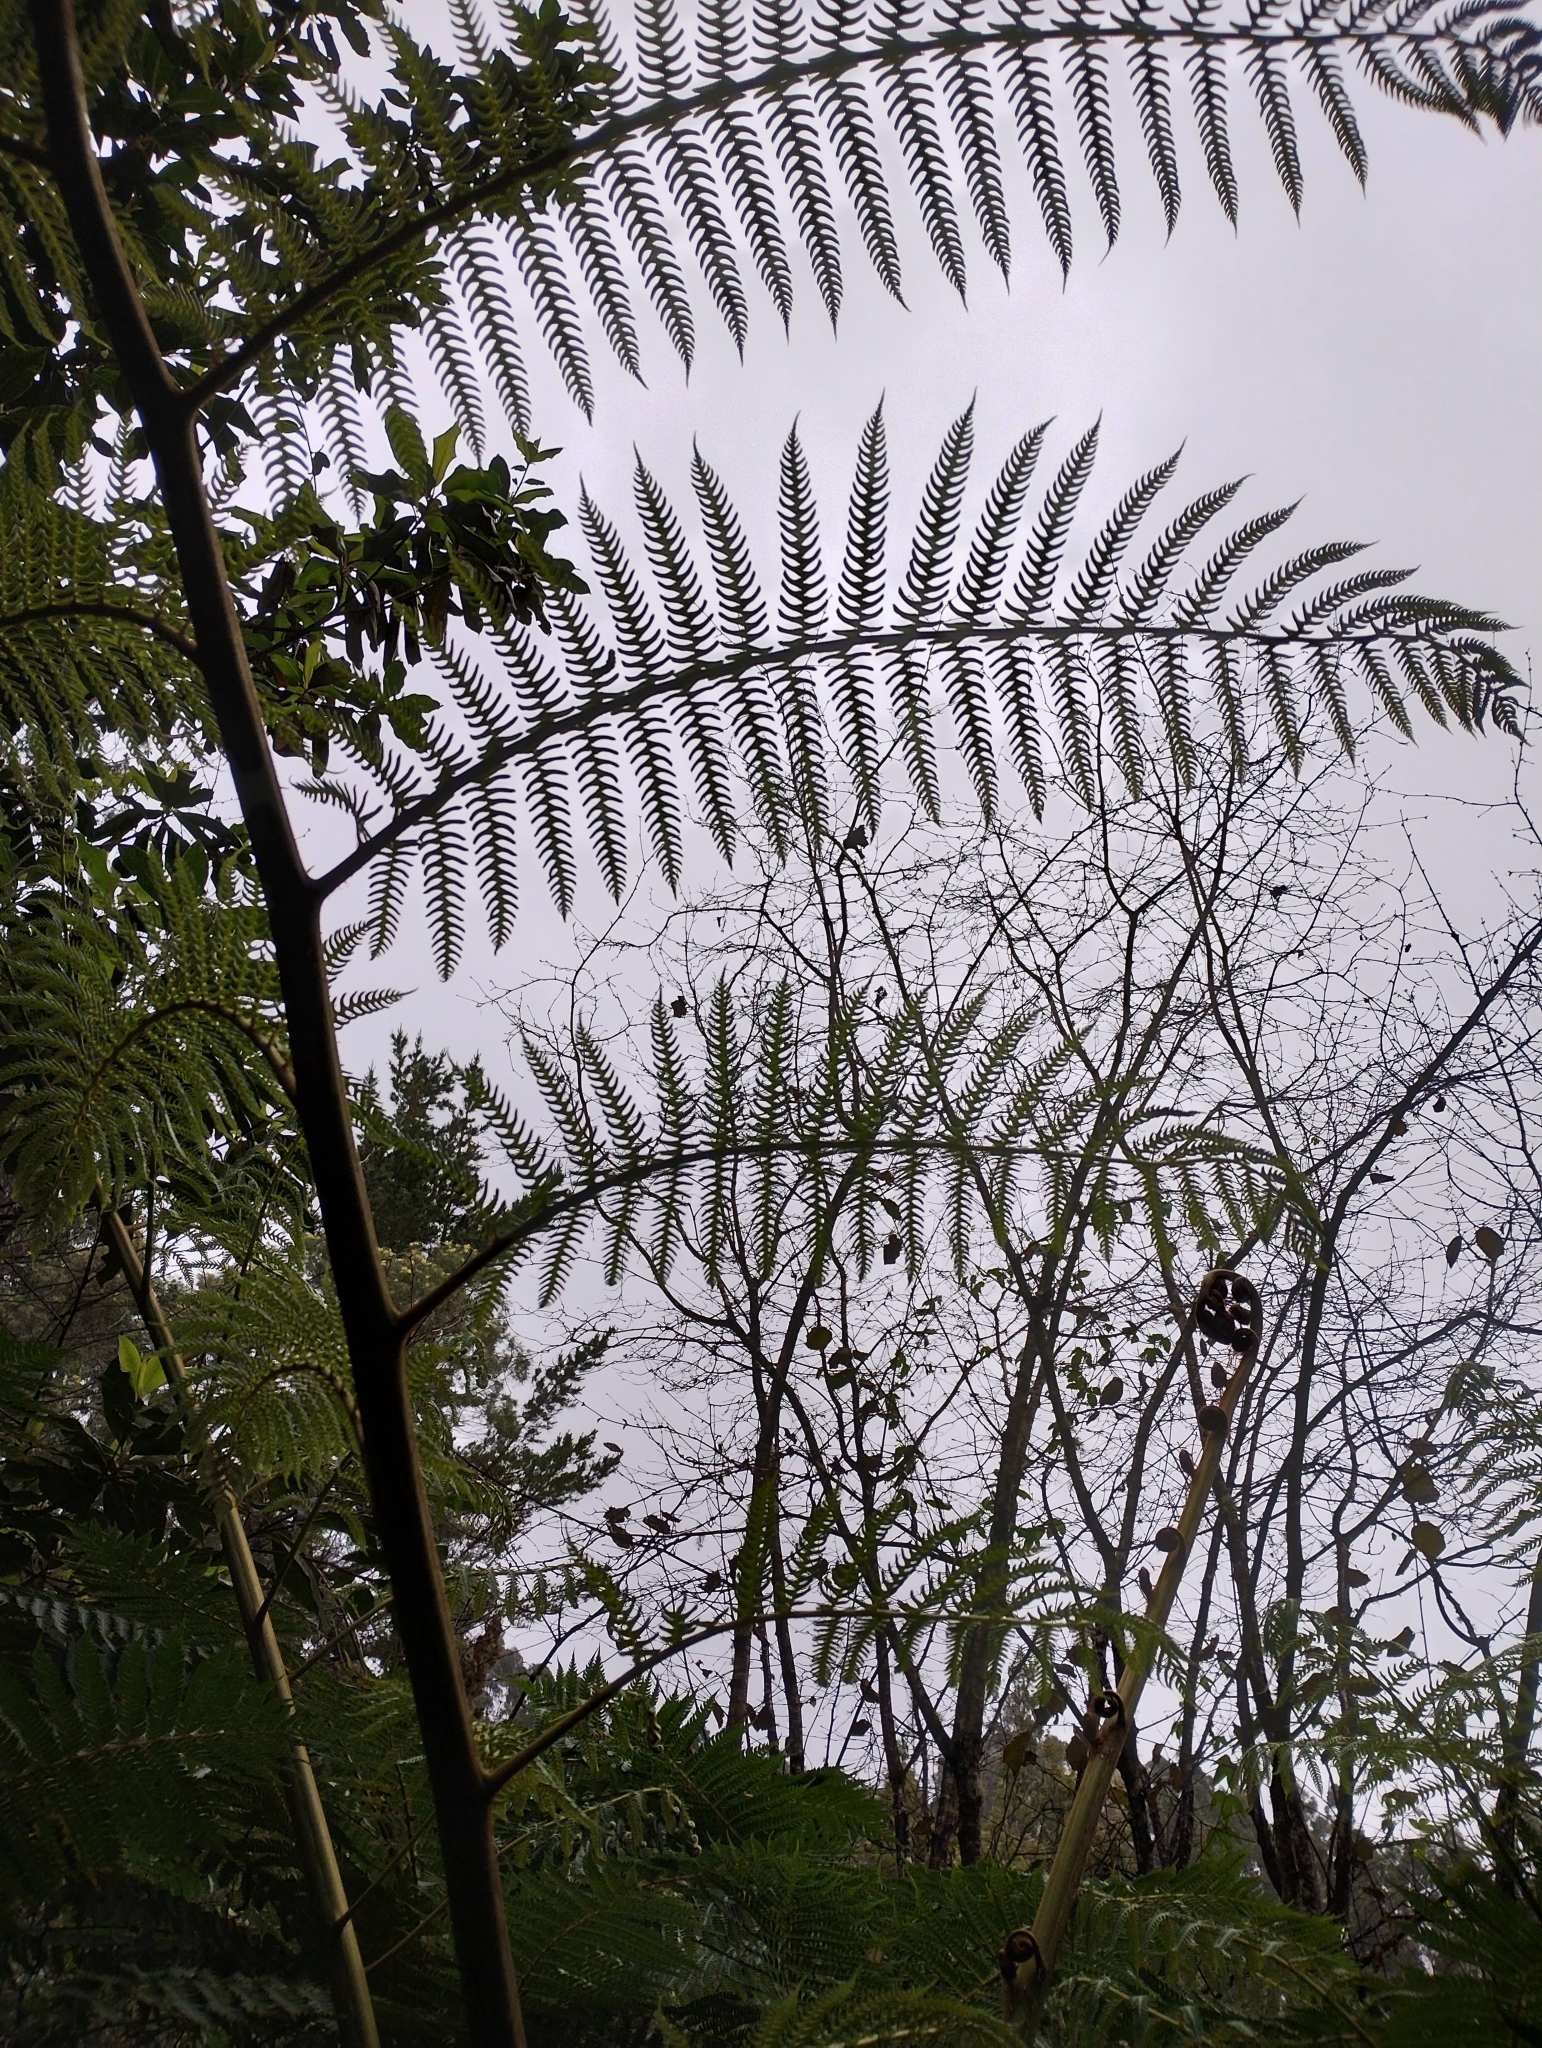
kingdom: Plantae
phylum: Tracheophyta
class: Polypodiopsida
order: Cyatheales
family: Cyatheaceae
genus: Sphaeropteris
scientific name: Sphaeropteris cooperi
